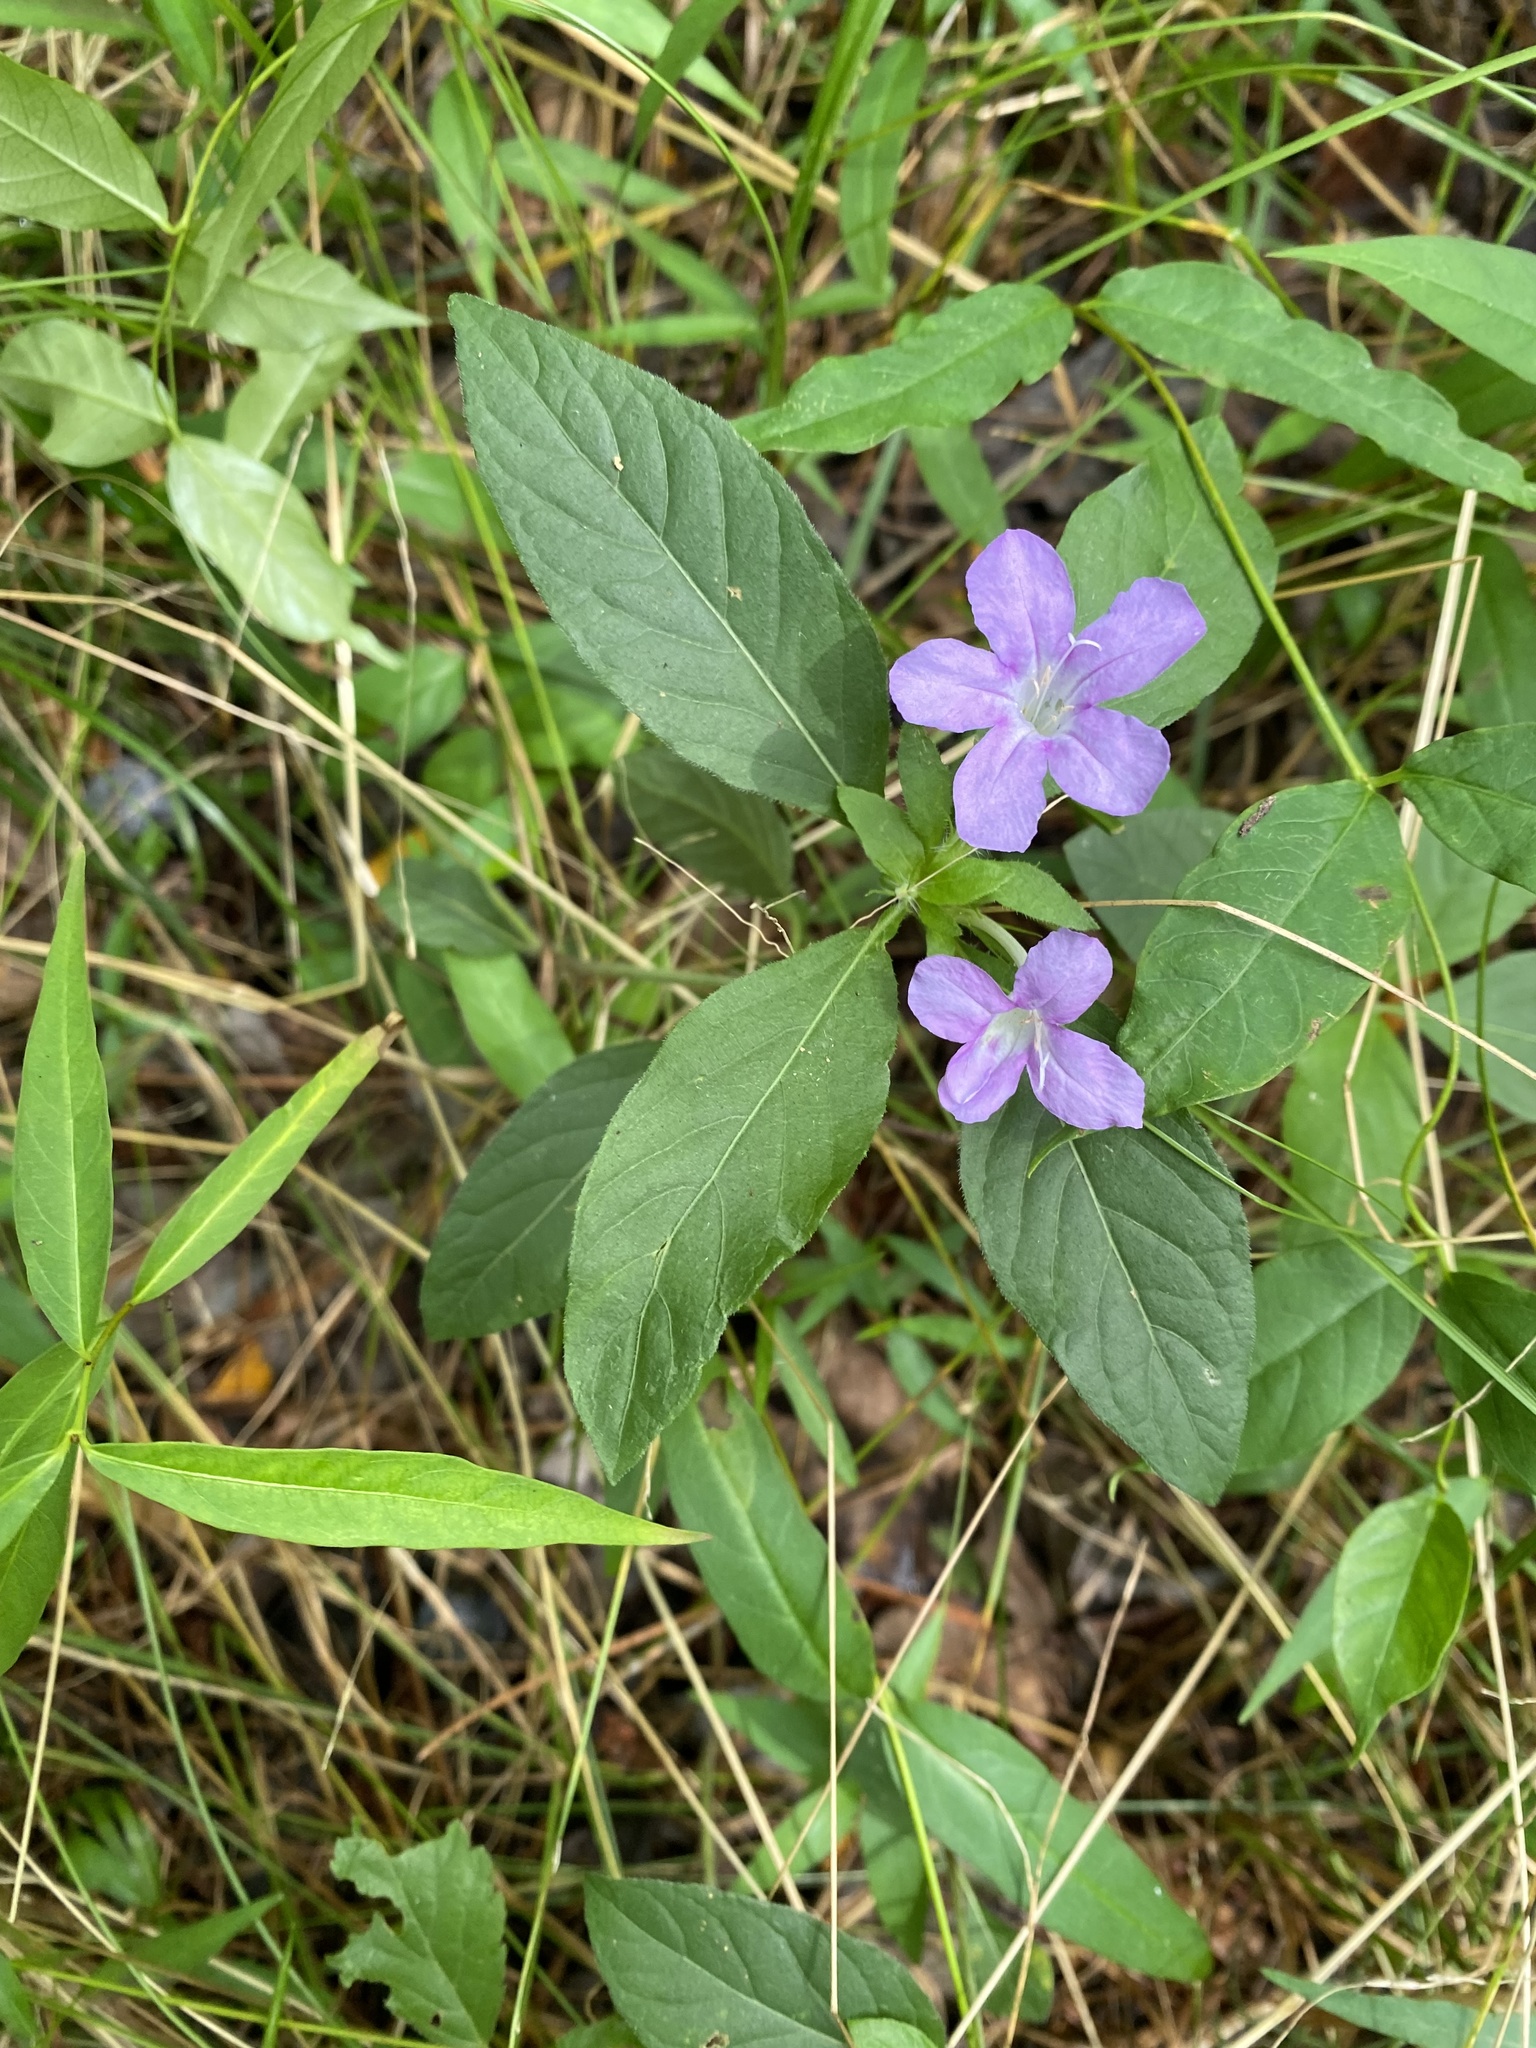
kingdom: Plantae
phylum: Tracheophyta
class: Magnoliopsida
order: Lamiales
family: Acanthaceae
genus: Ruellia
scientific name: Ruellia caroliniensis
